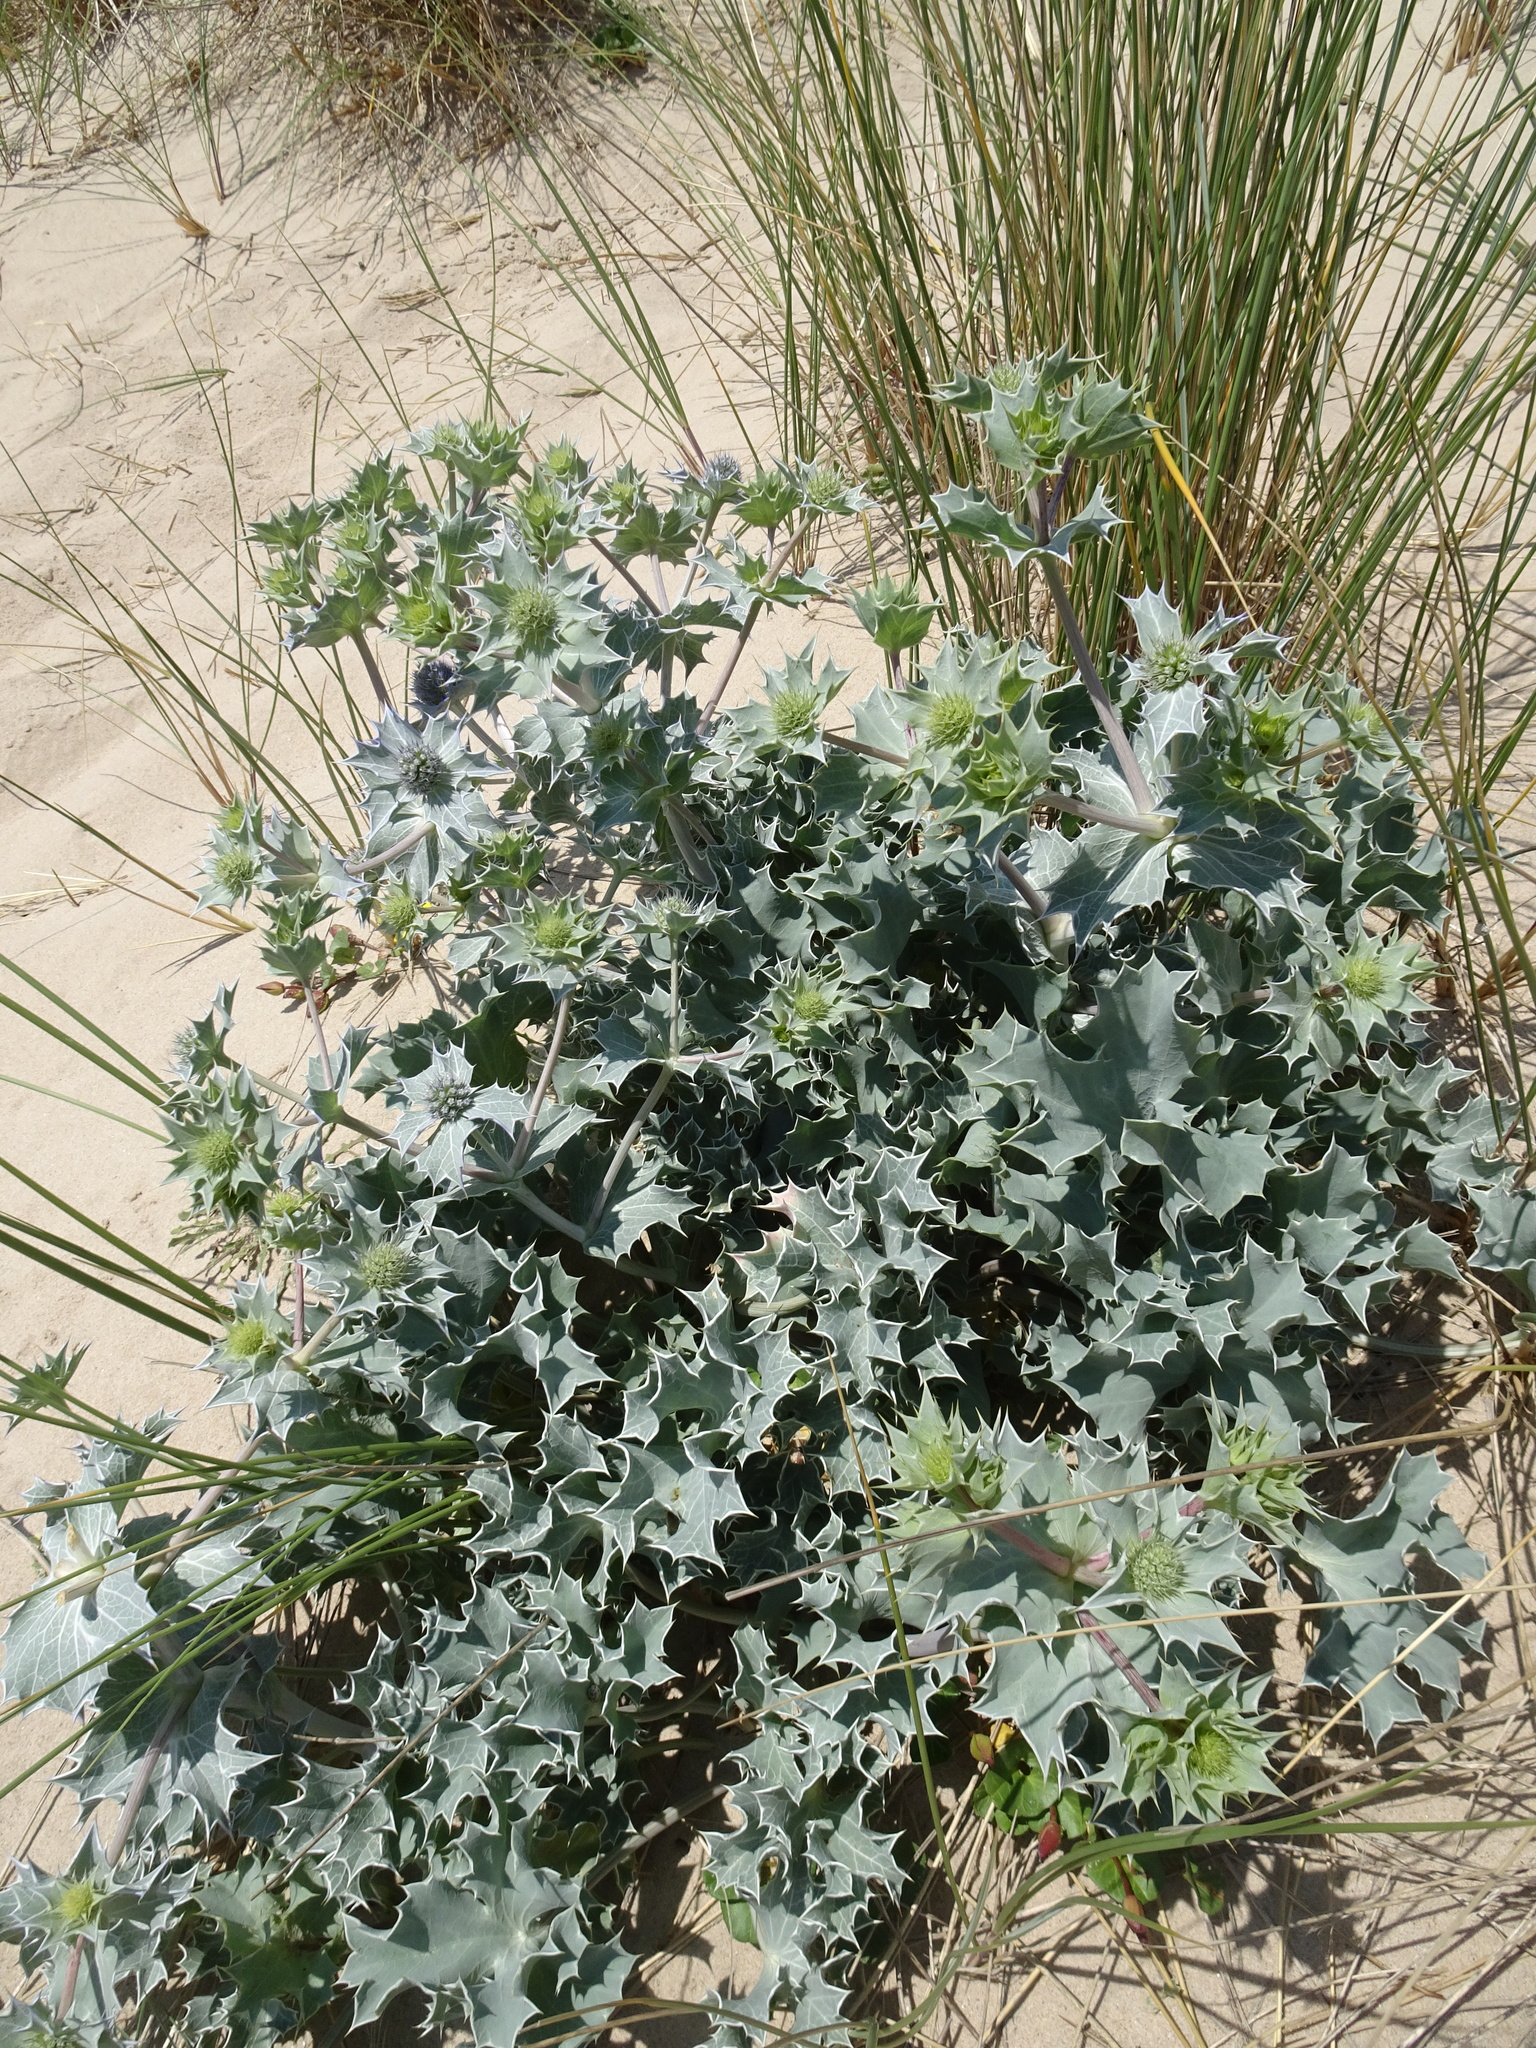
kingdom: Plantae
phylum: Tracheophyta
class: Magnoliopsida
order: Apiales
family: Apiaceae
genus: Eryngium
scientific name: Eryngium maritimum
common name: Sea-holly
